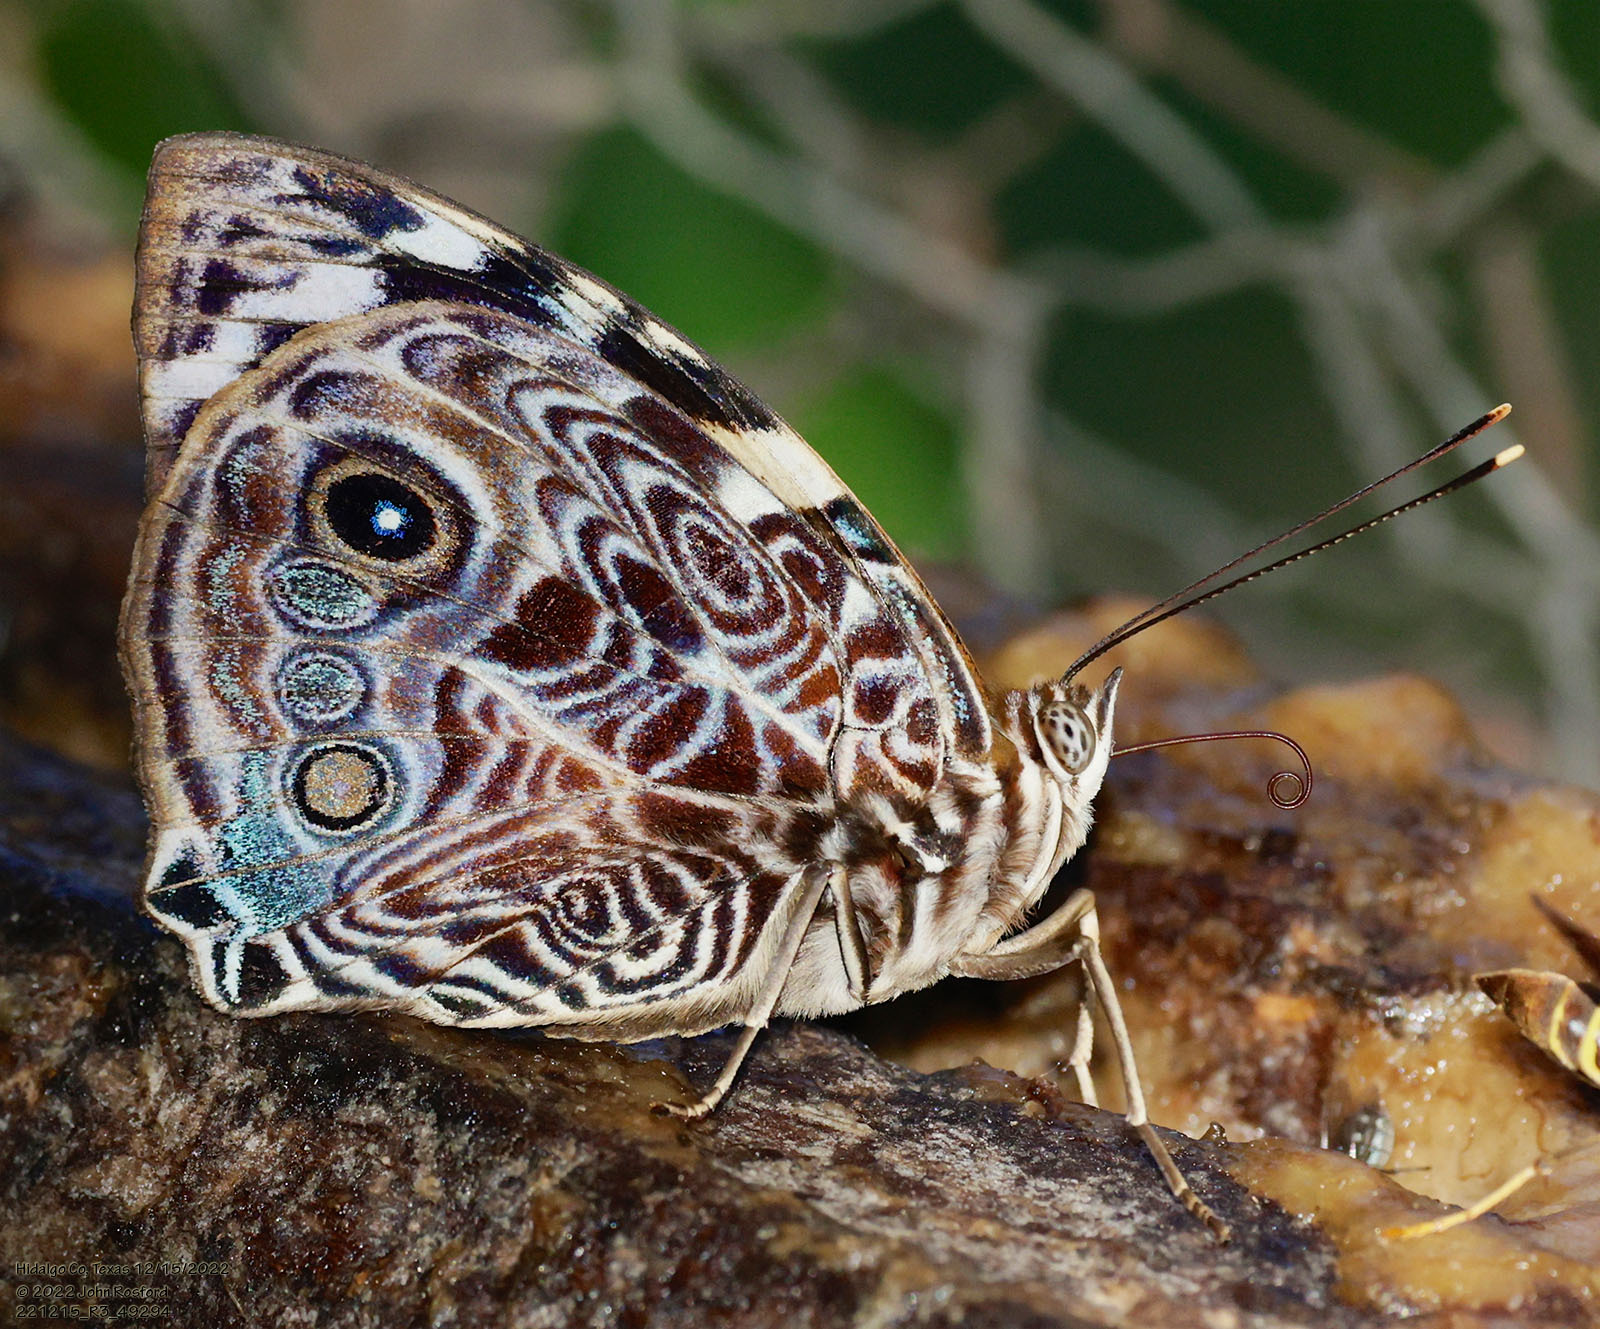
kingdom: Animalia
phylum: Arthropoda
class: Insecta
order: Lepidoptera
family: Nymphalidae
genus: Smyrna
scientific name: Smyrna blomfildia
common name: Blomfild's beauty
